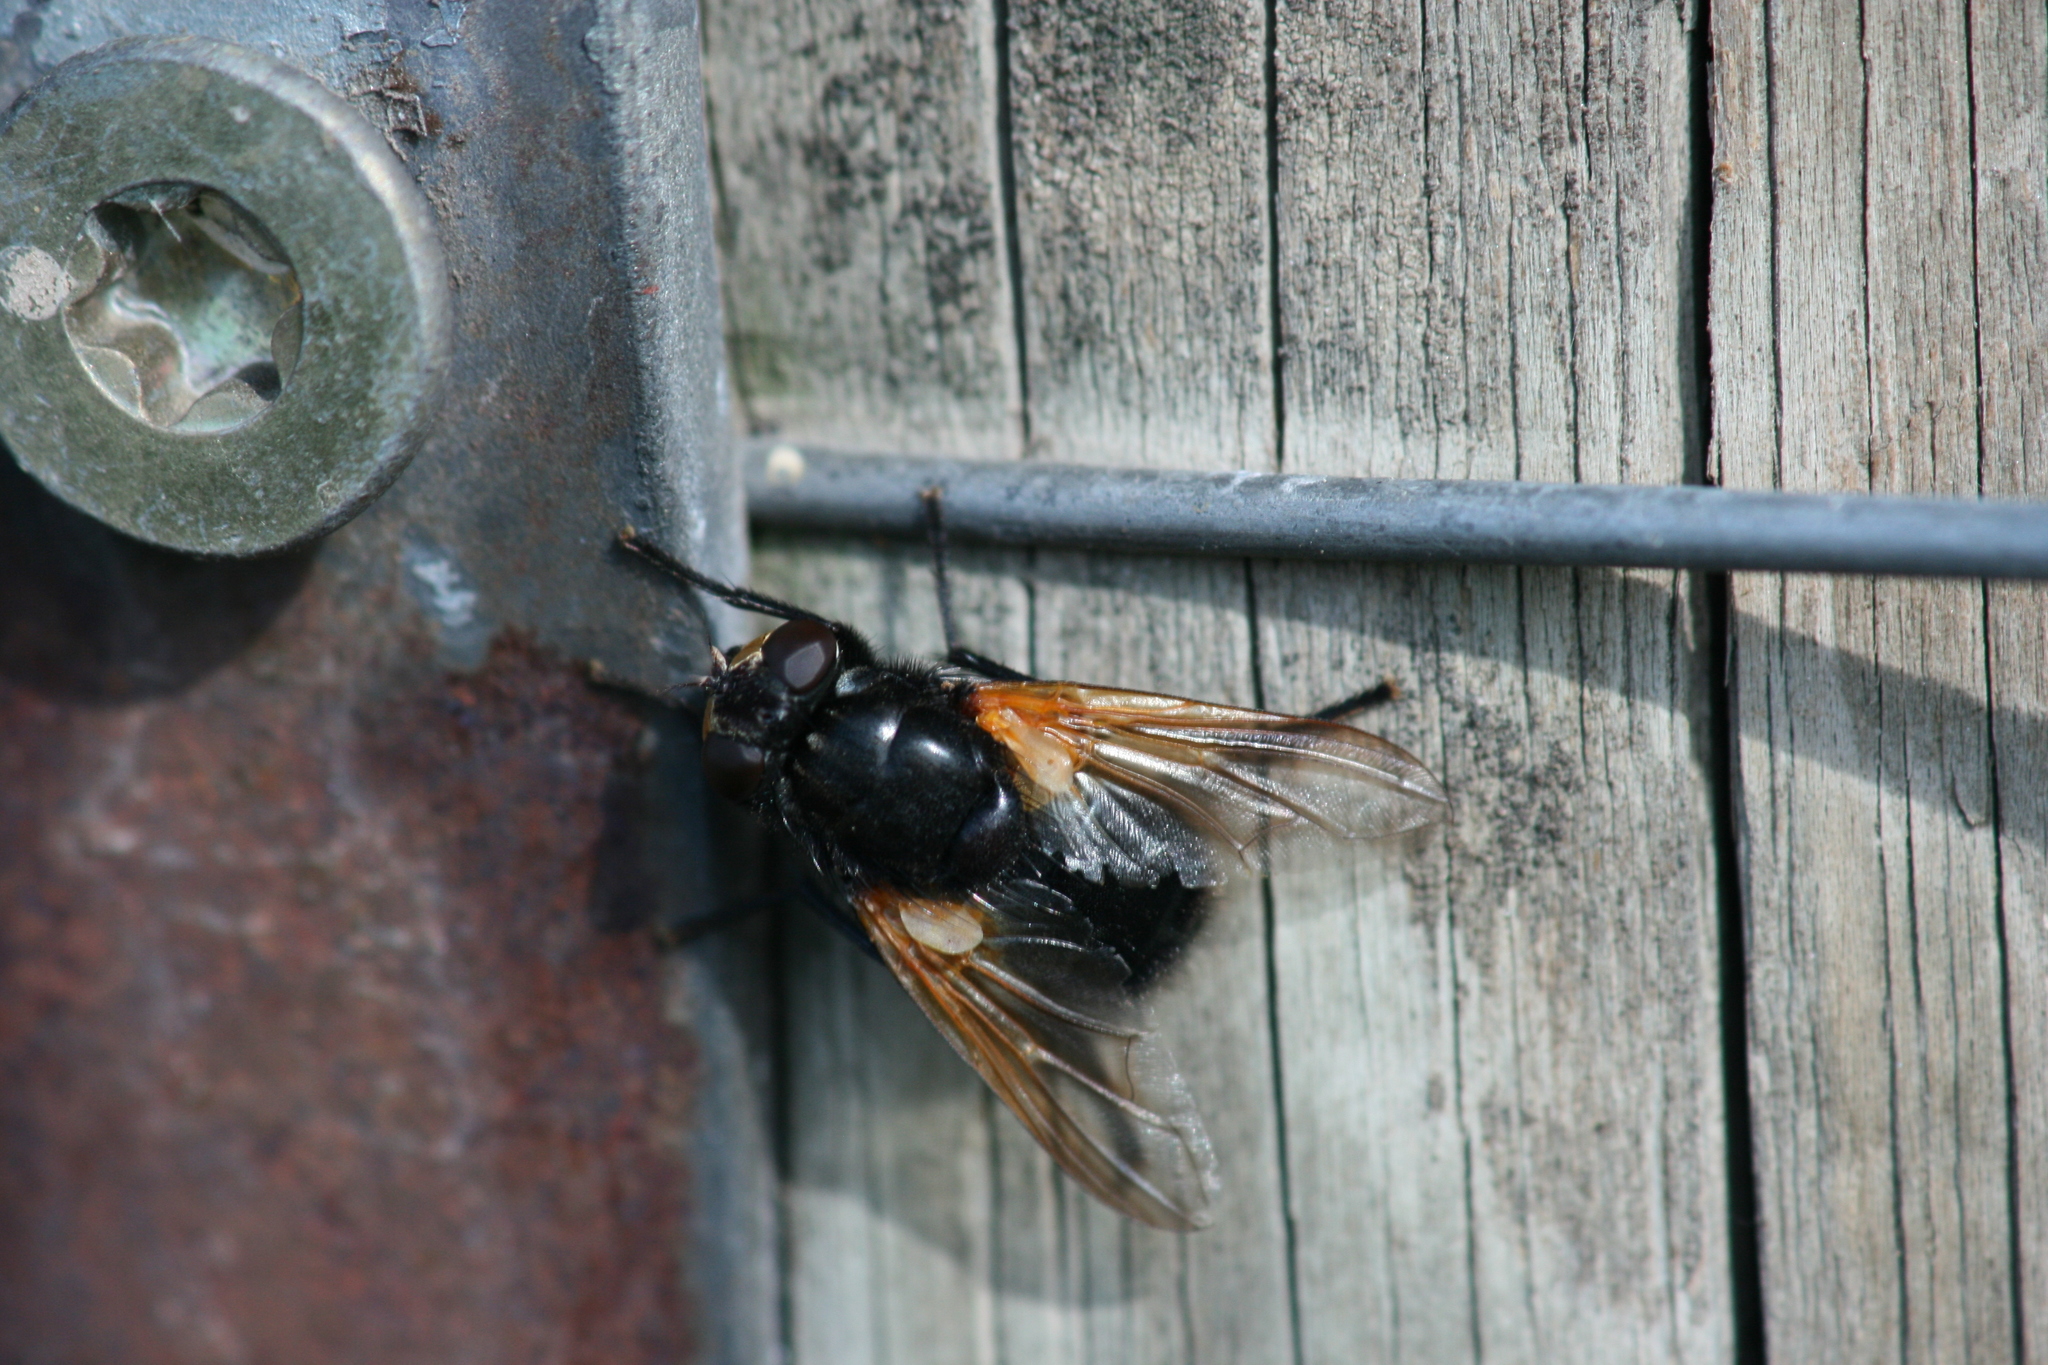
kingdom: Animalia
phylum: Arthropoda
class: Insecta
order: Diptera
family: Muscidae
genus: Mesembrina
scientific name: Mesembrina meridiana
